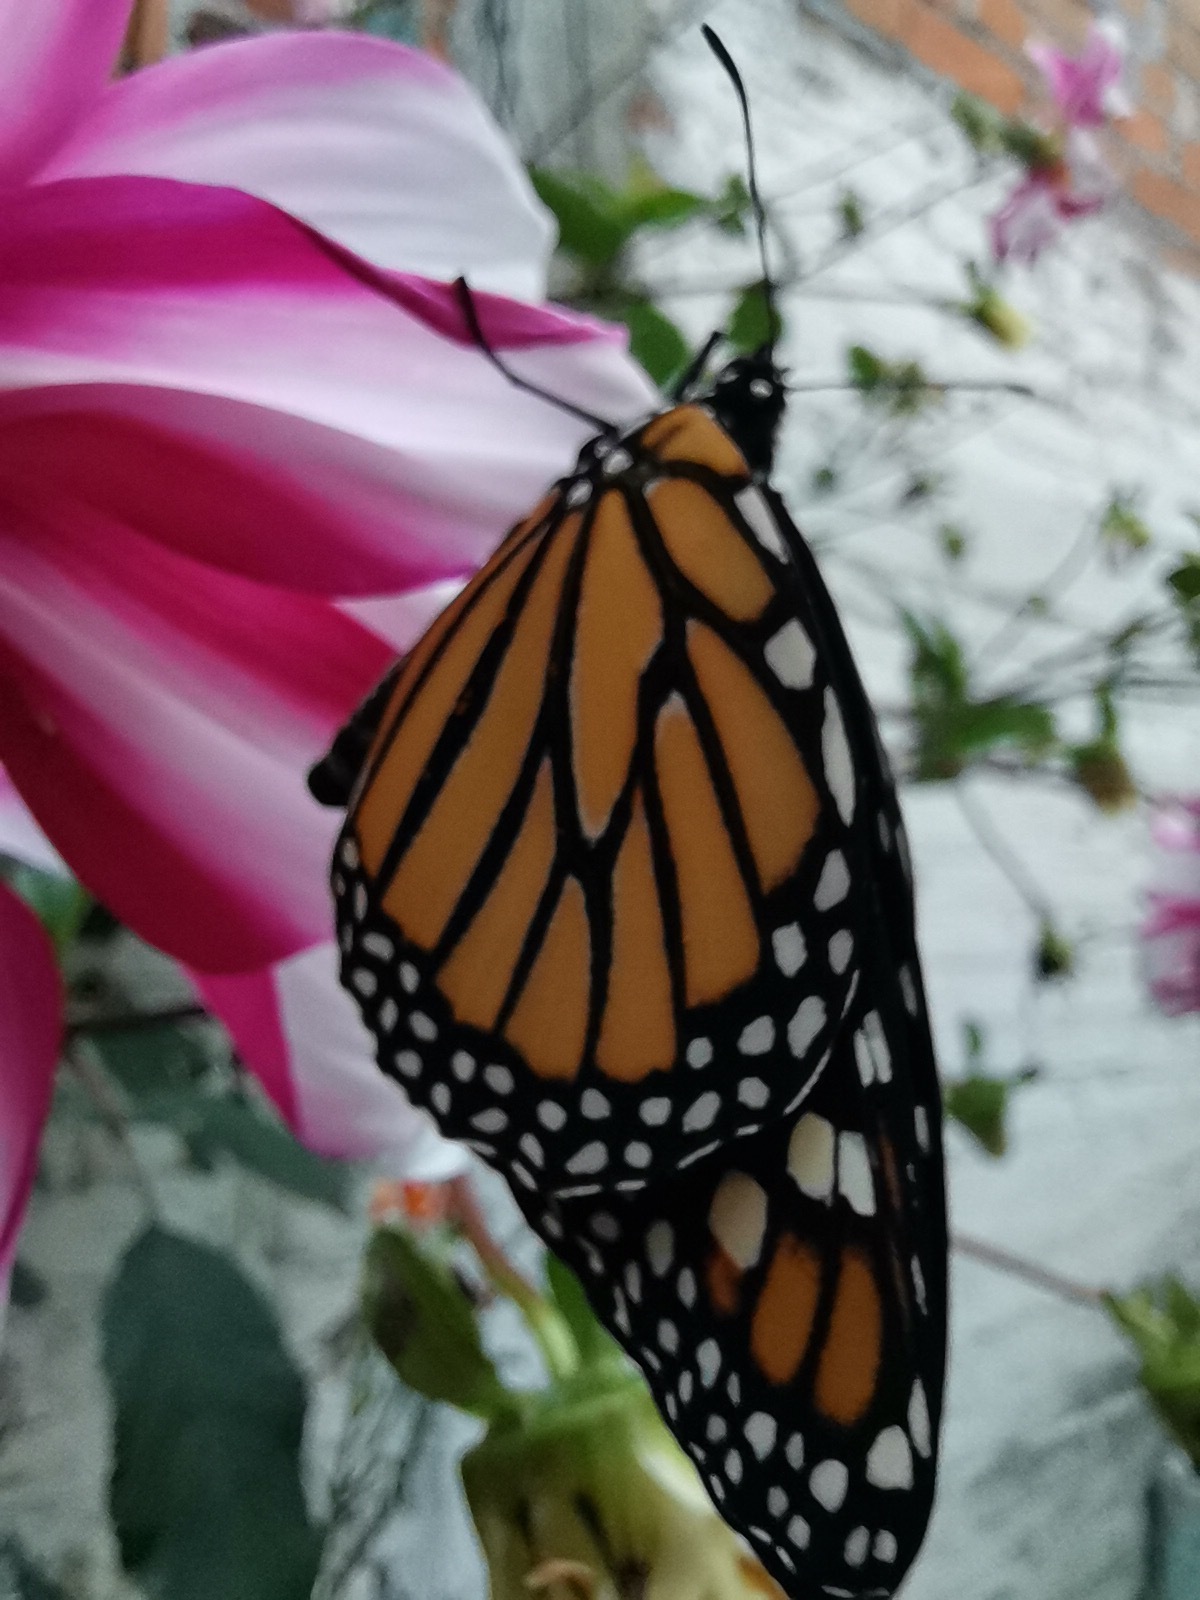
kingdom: Animalia
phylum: Arthropoda
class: Insecta
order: Lepidoptera
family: Nymphalidae
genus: Danaus
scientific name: Danaus plexippus
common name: Monarch
